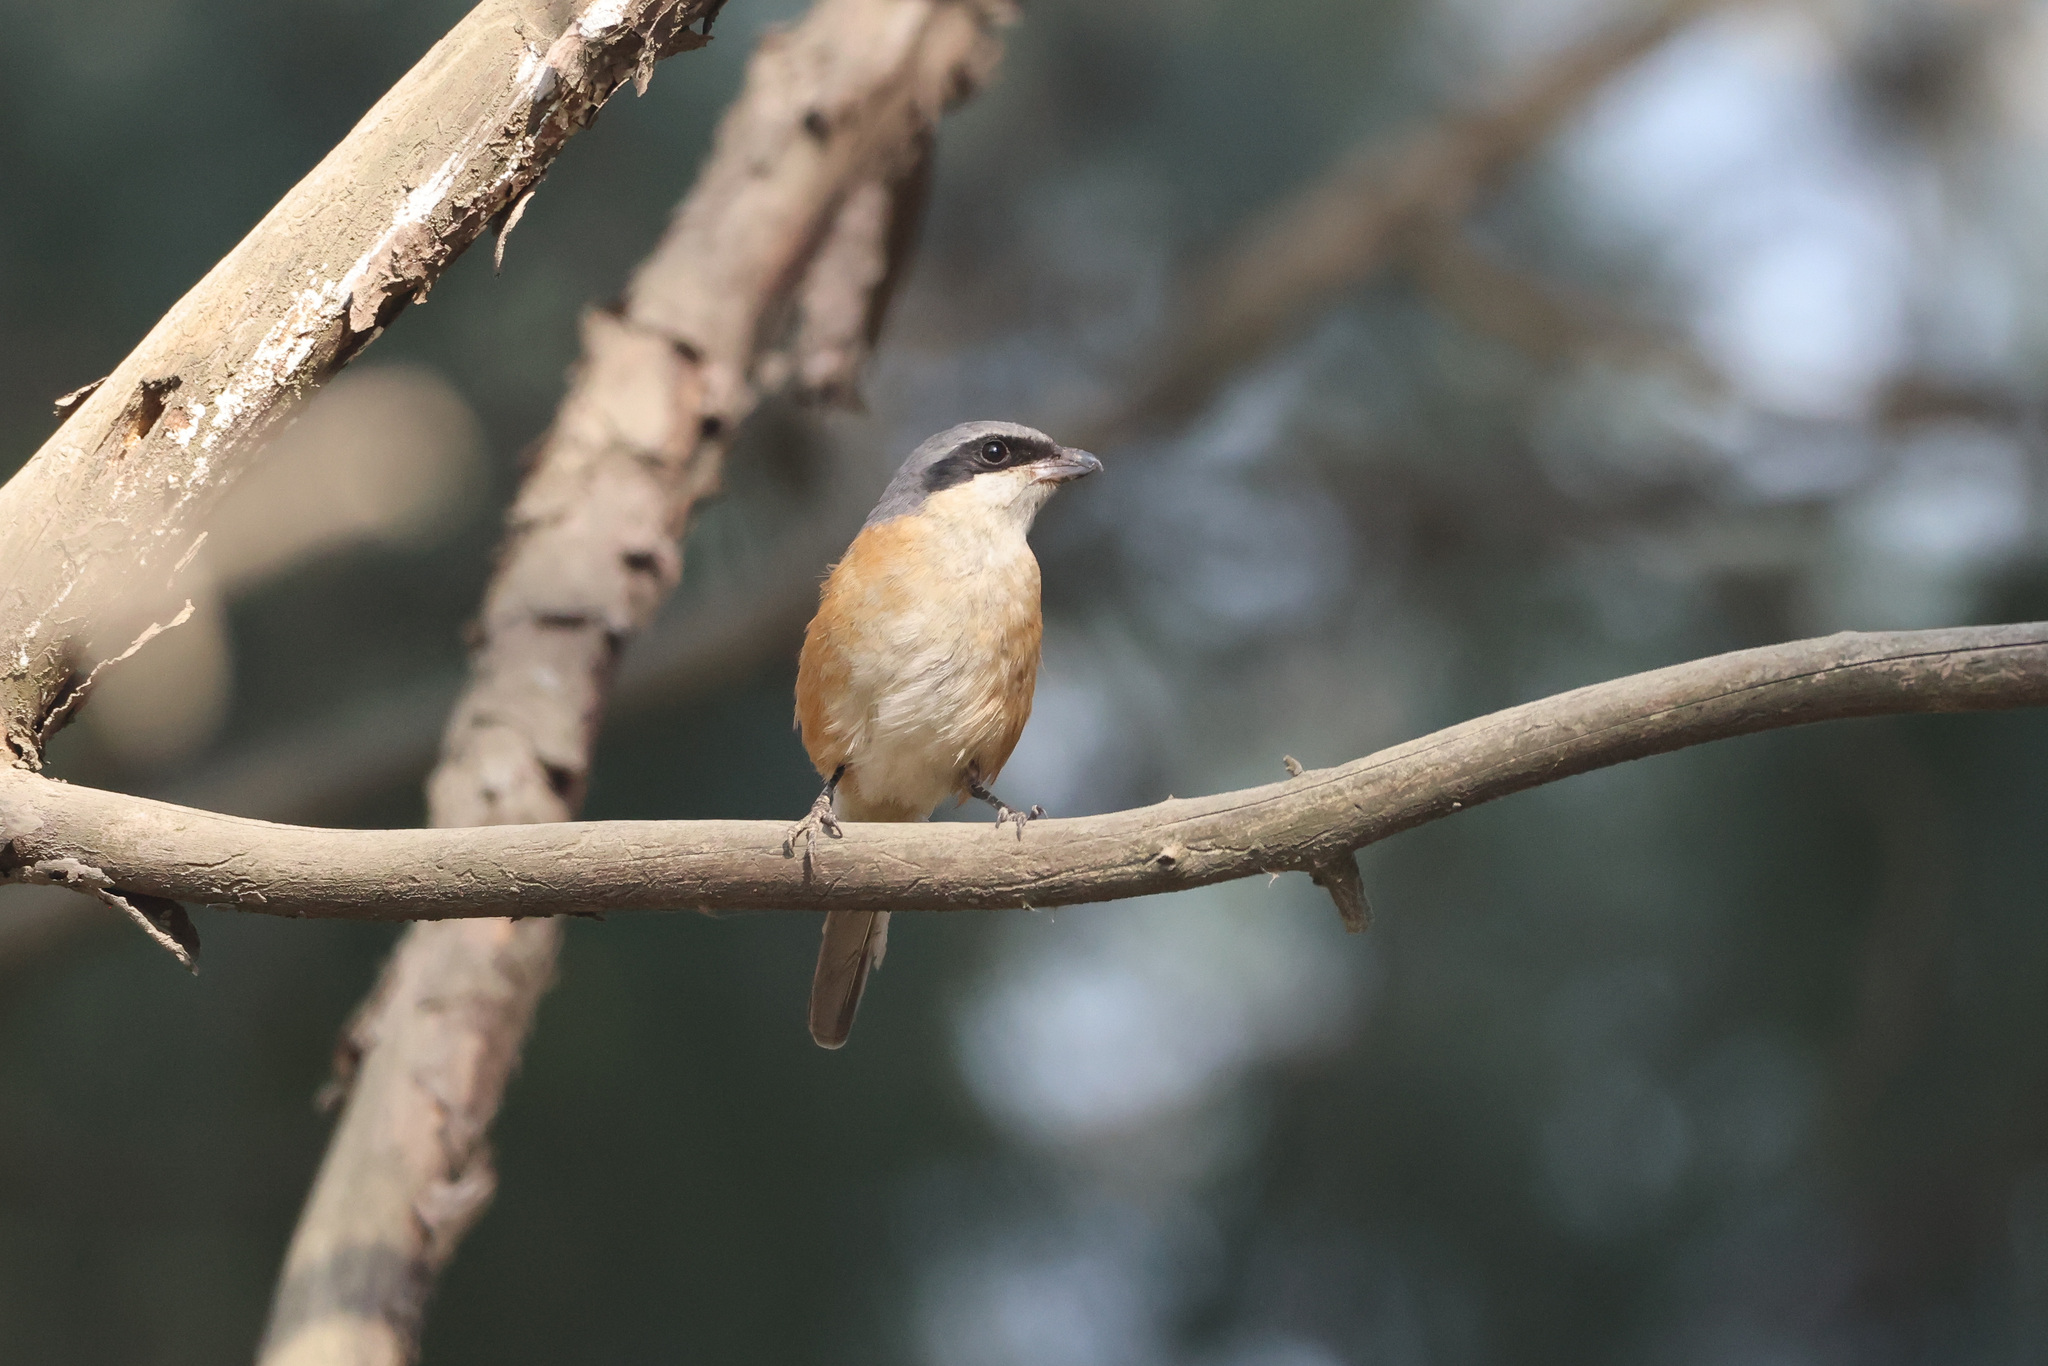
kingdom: Animalia
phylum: Chordata
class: Aves
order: Passeriformes
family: Laniidae
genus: Lanius
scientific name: Lanius tephronotus
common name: Grey-backed shrike
